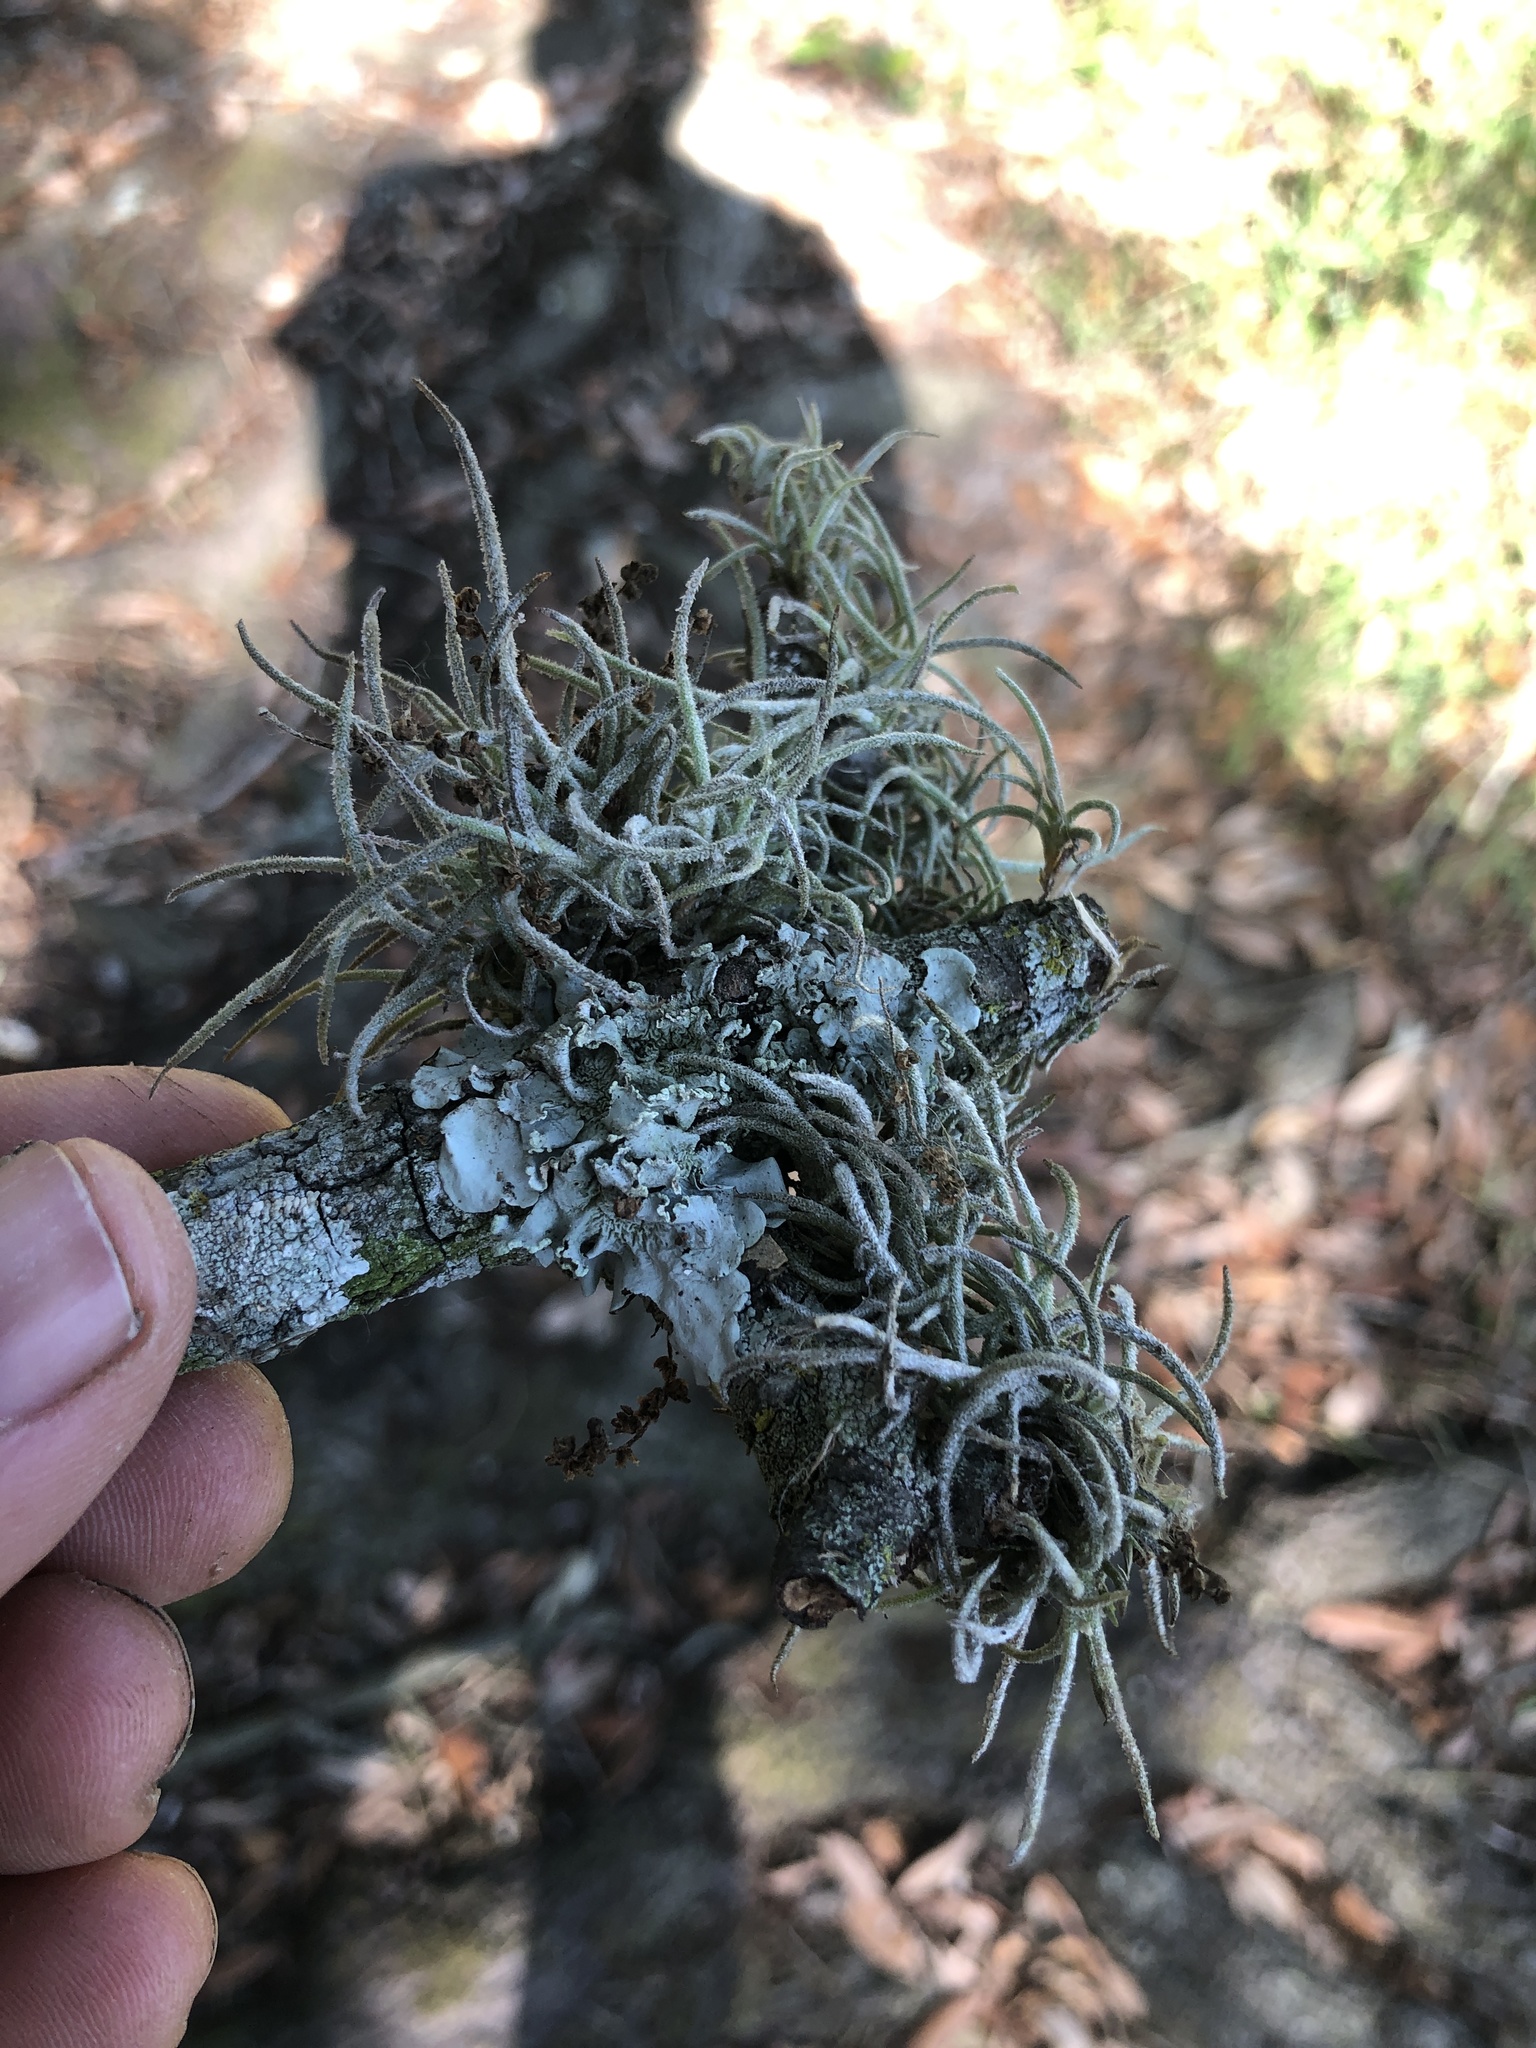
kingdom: Plantae
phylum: Tracheophyta
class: Liliopsida
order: Poales
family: Bromeliaceae
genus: Tillandsia
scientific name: Tillandsia recurvata
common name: Small ballmoss
